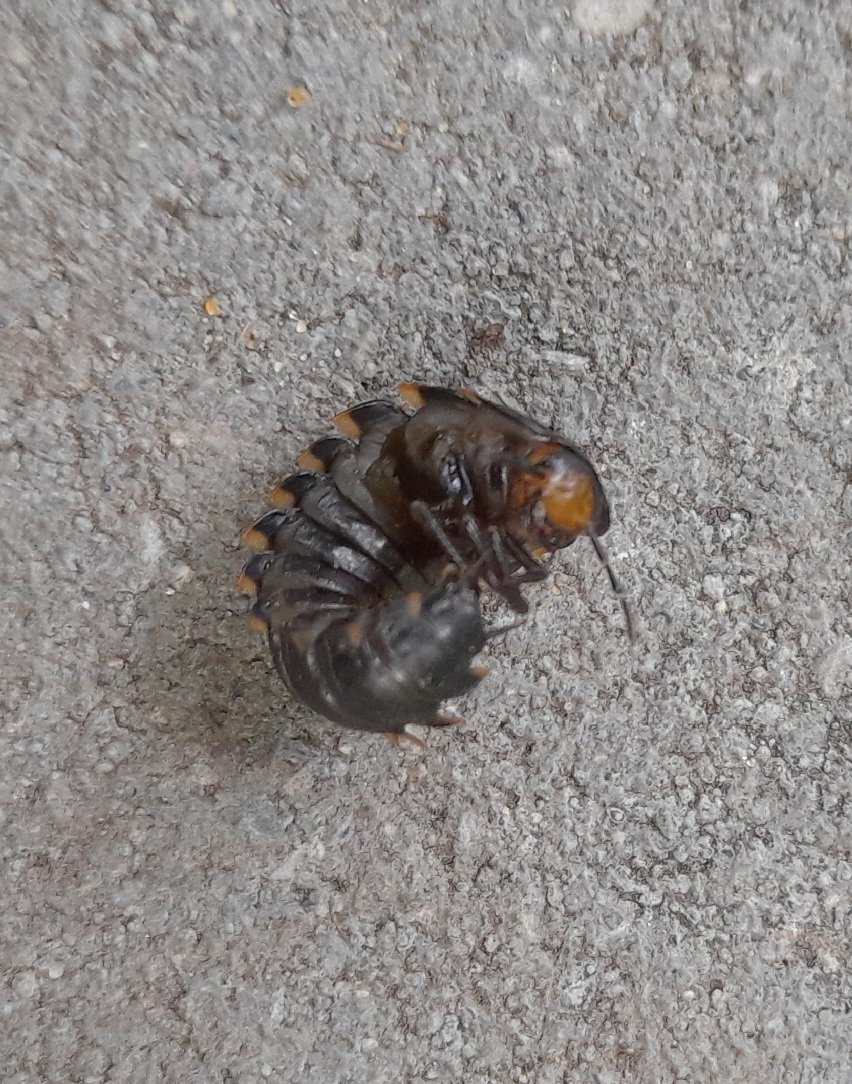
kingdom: Animalia
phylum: Arthropoda
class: Insecta
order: Coleoptera
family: Staphylinidae
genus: Silpha
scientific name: Silpha tristis
